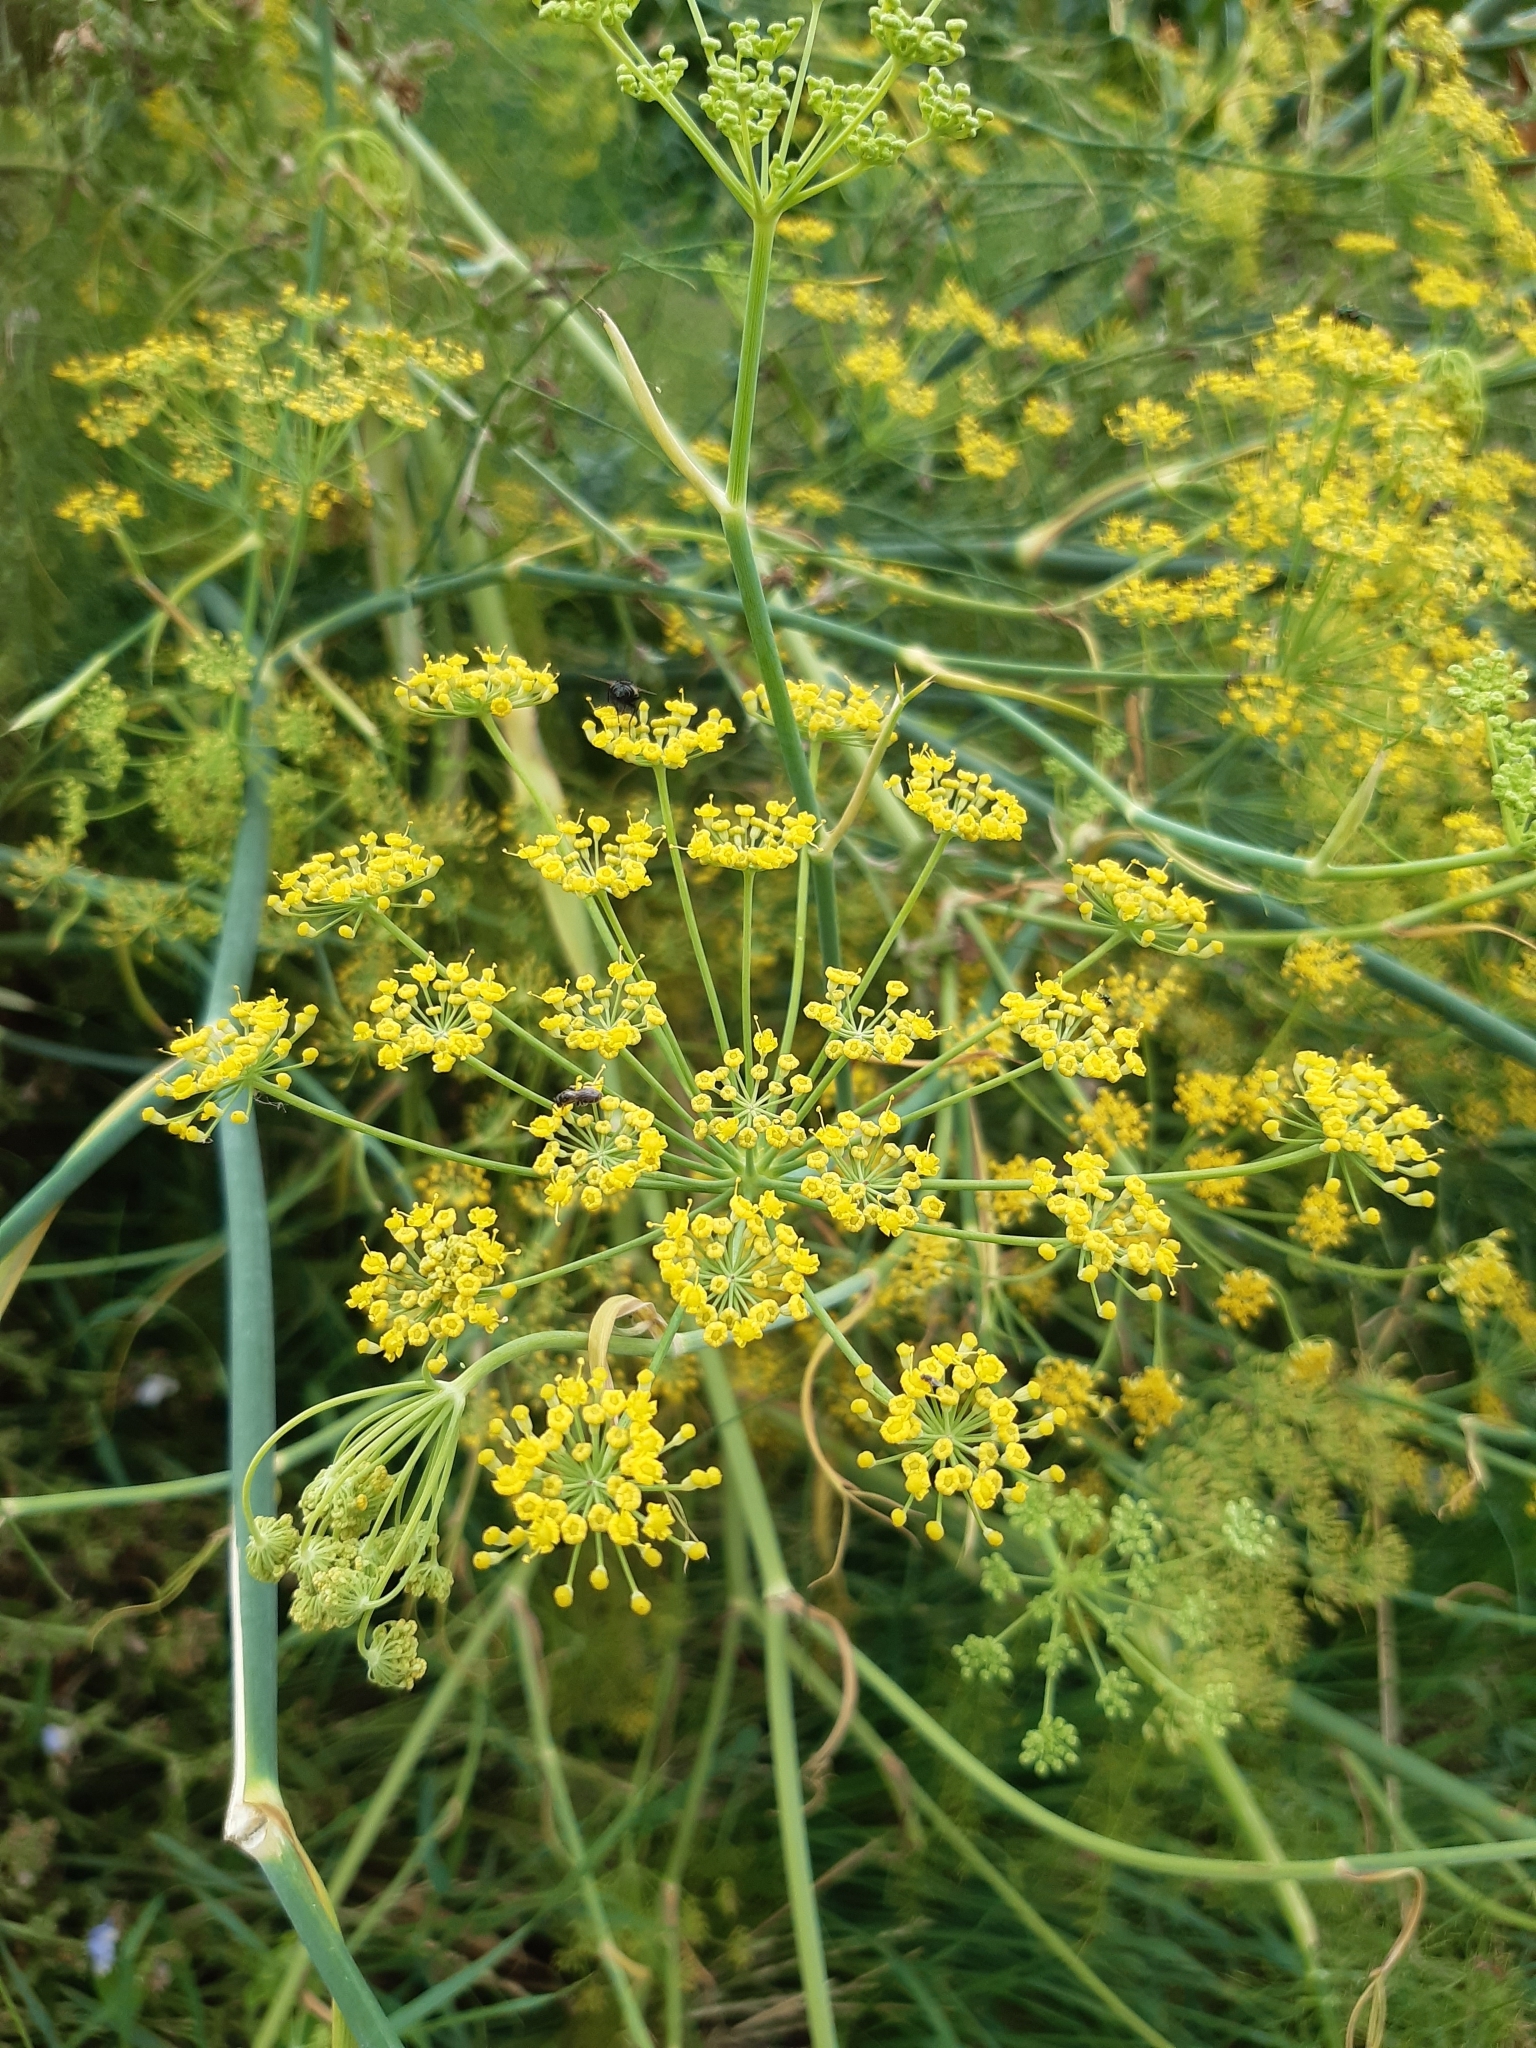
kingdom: Plantae
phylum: Tracheophyta
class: Magnoliopsida
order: Apiales
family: Apiaceae
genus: Foeniculum
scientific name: Foeniculum vulgare
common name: Fennel
